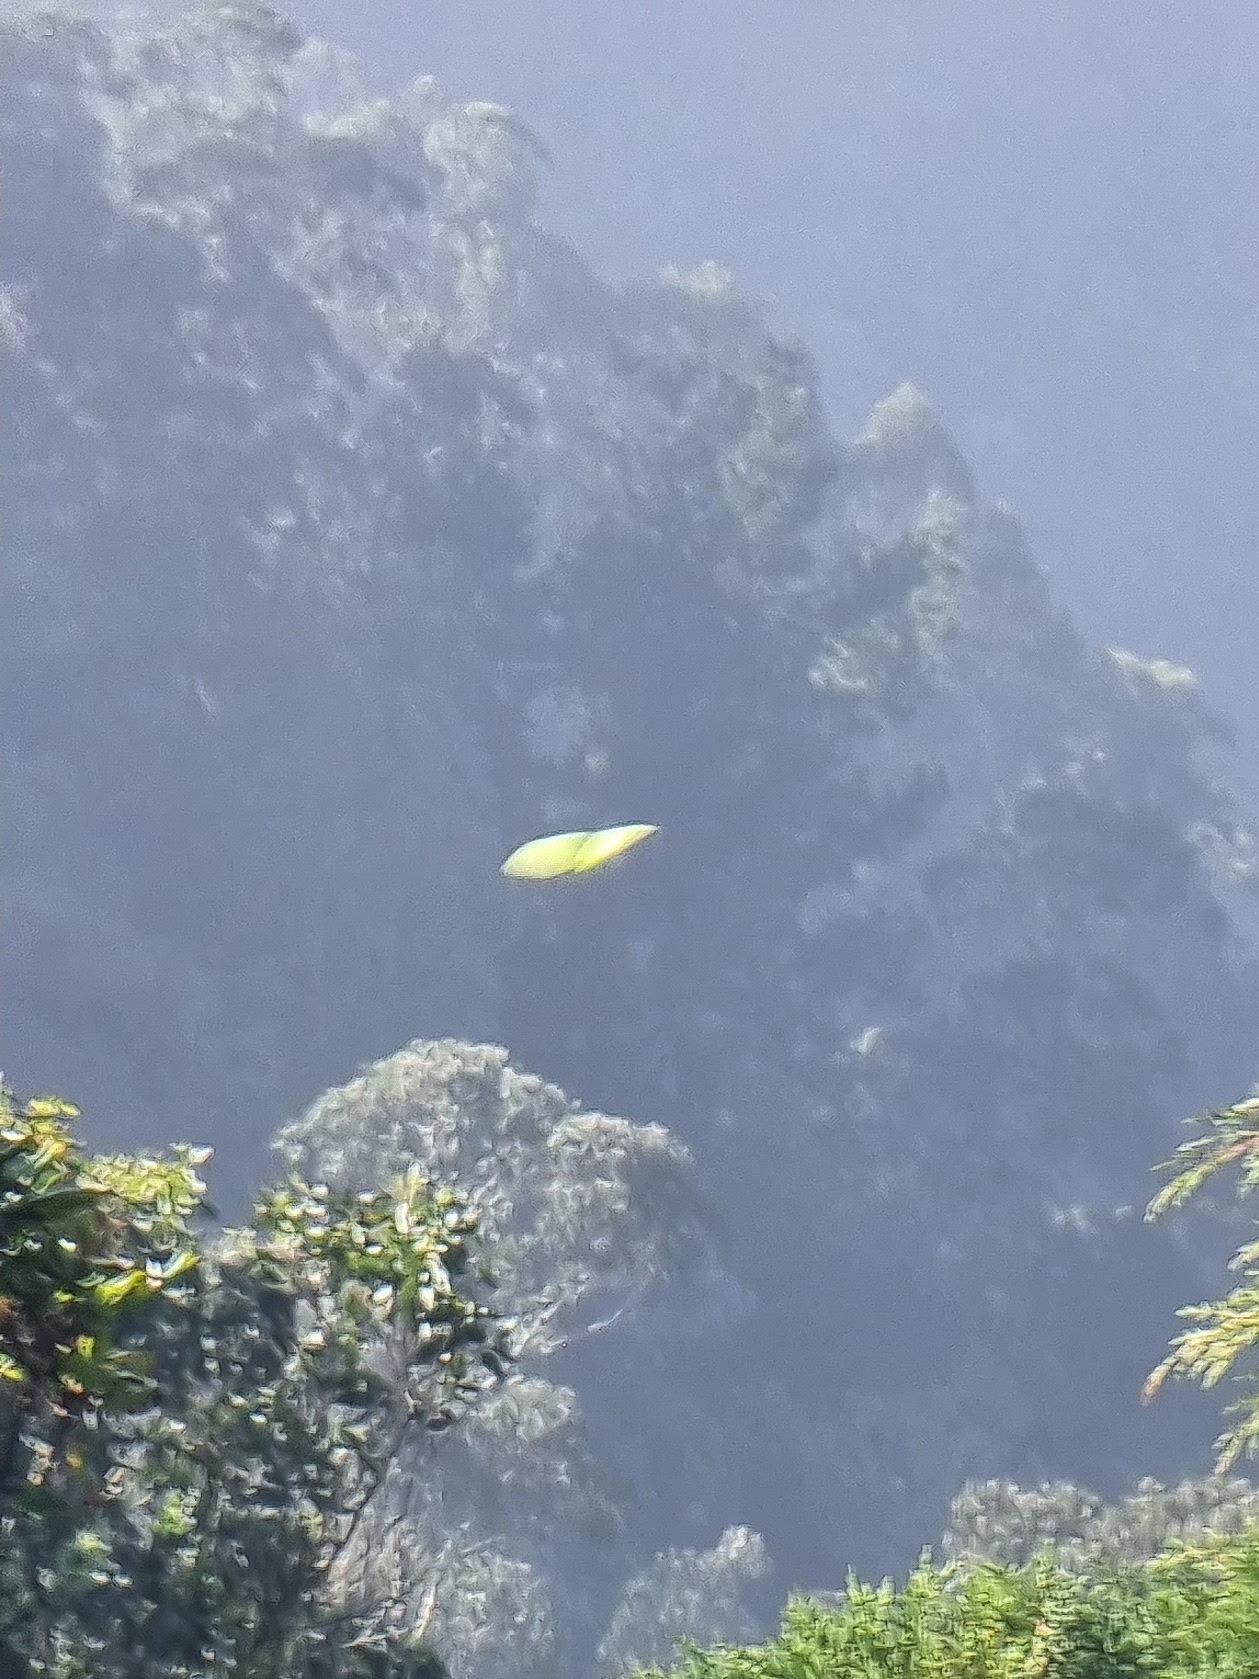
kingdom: Animalia
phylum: Arthropoda
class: Insecta
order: Lepidoptera
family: Pieridae
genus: Gonepteryx
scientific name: Gonepteryx maderensis
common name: Madeiran brimstone
